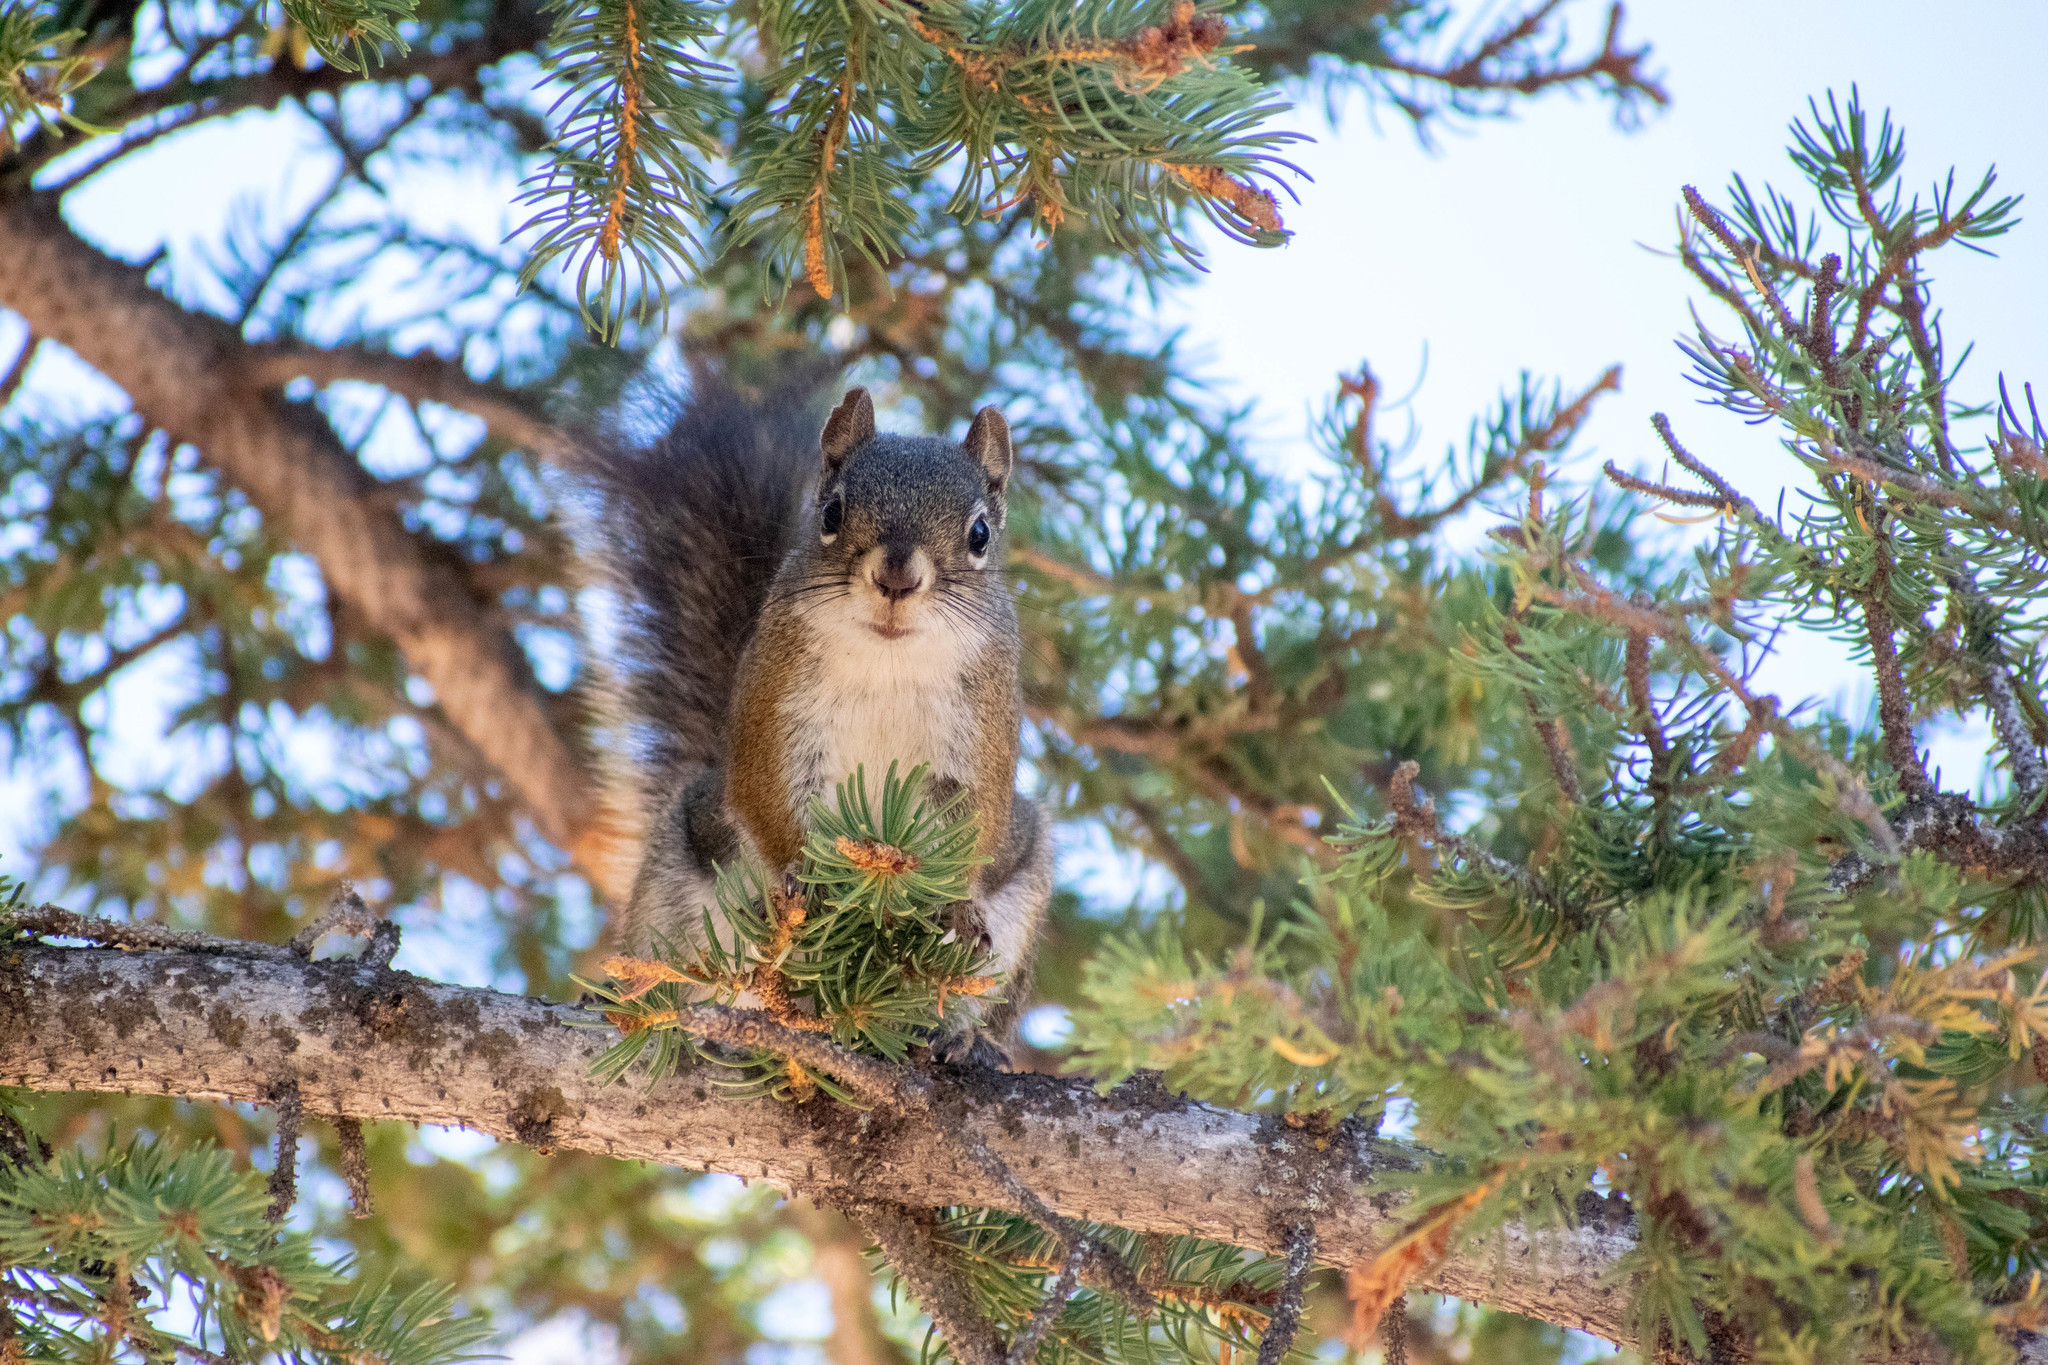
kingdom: Animalia
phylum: Chordata
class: Mammalia
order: Rodentia
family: Sciuridae
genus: Tamiasciurus
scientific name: Tamiasciurus hudsonicus
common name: Red squirrel
